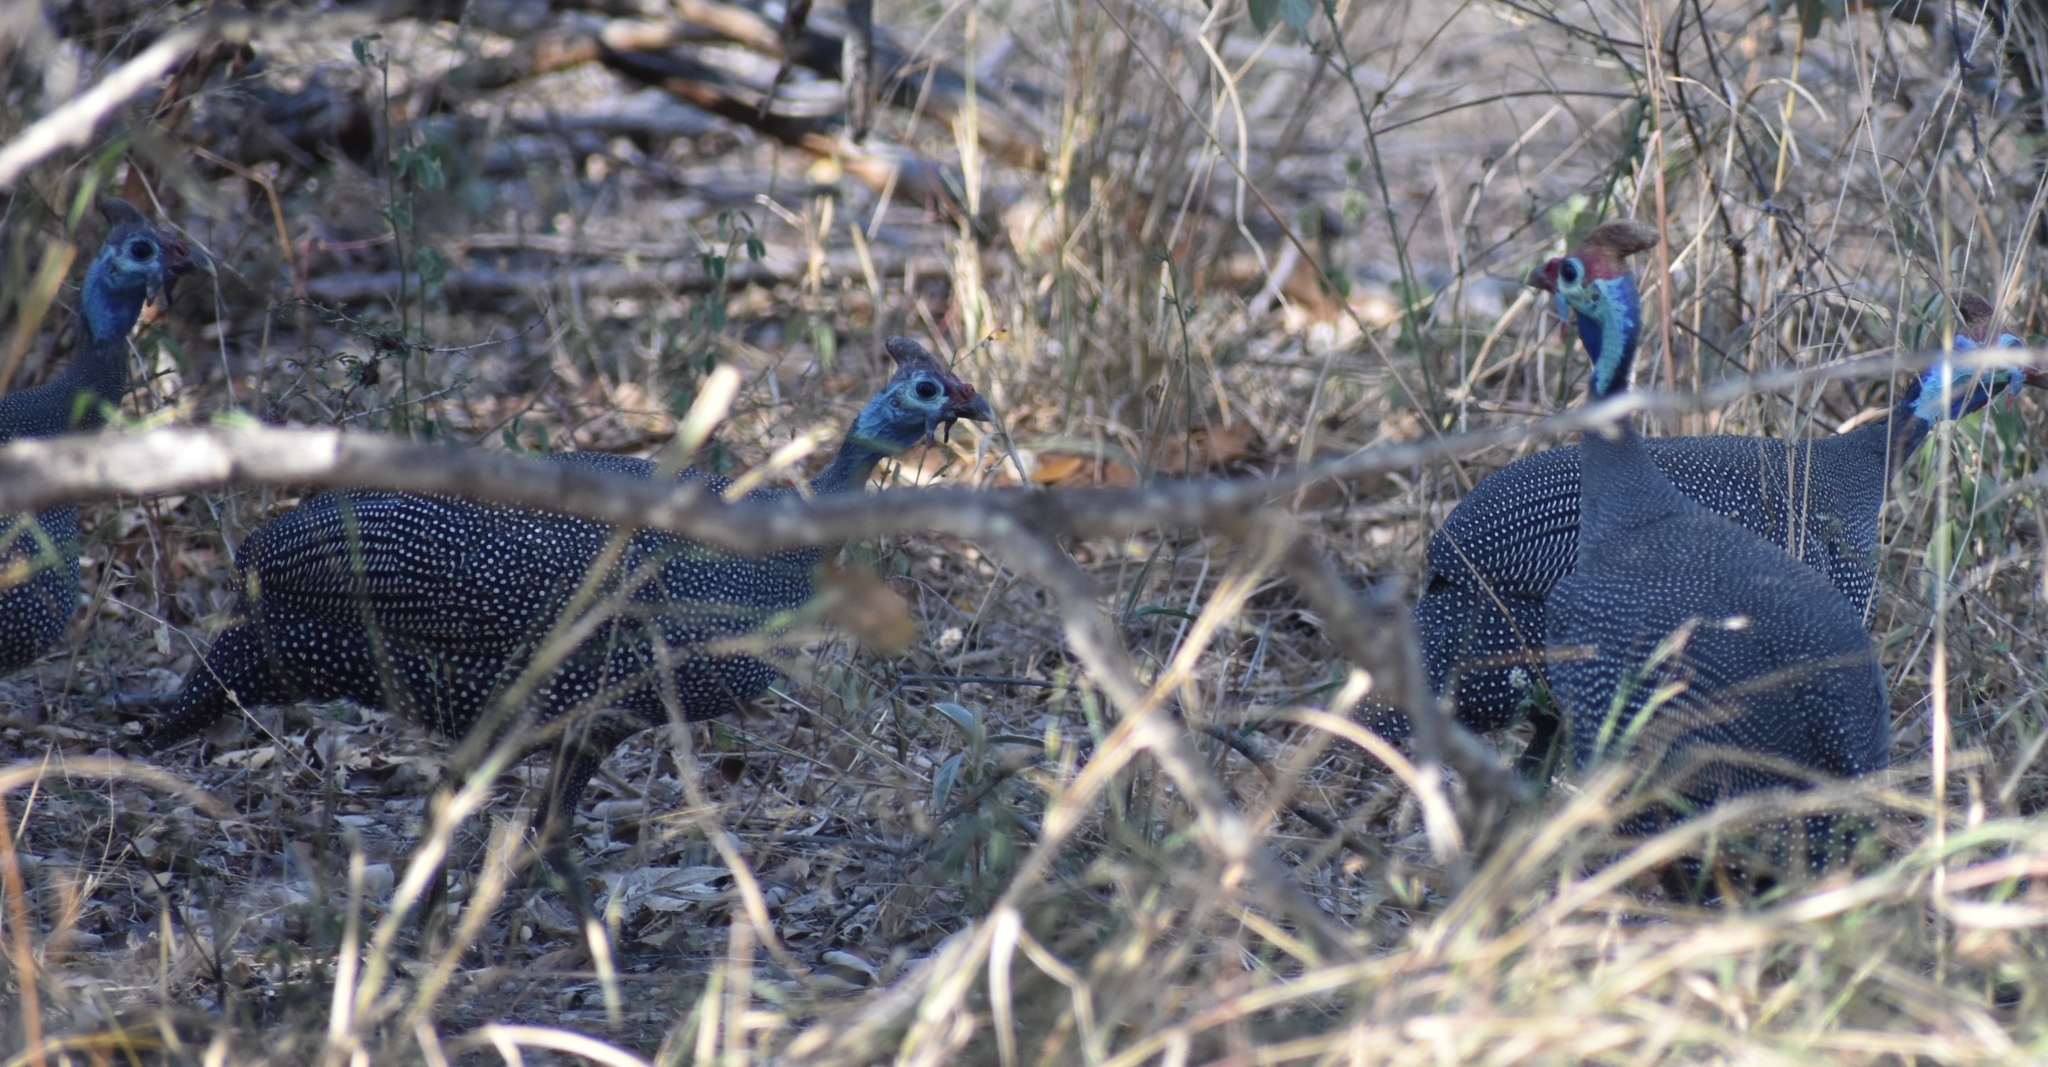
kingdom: Animalia
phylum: Chordata
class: Aves
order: Galliformes
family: Numididae
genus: Numida
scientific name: Numida meleagris
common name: Helmeted guineafowl
